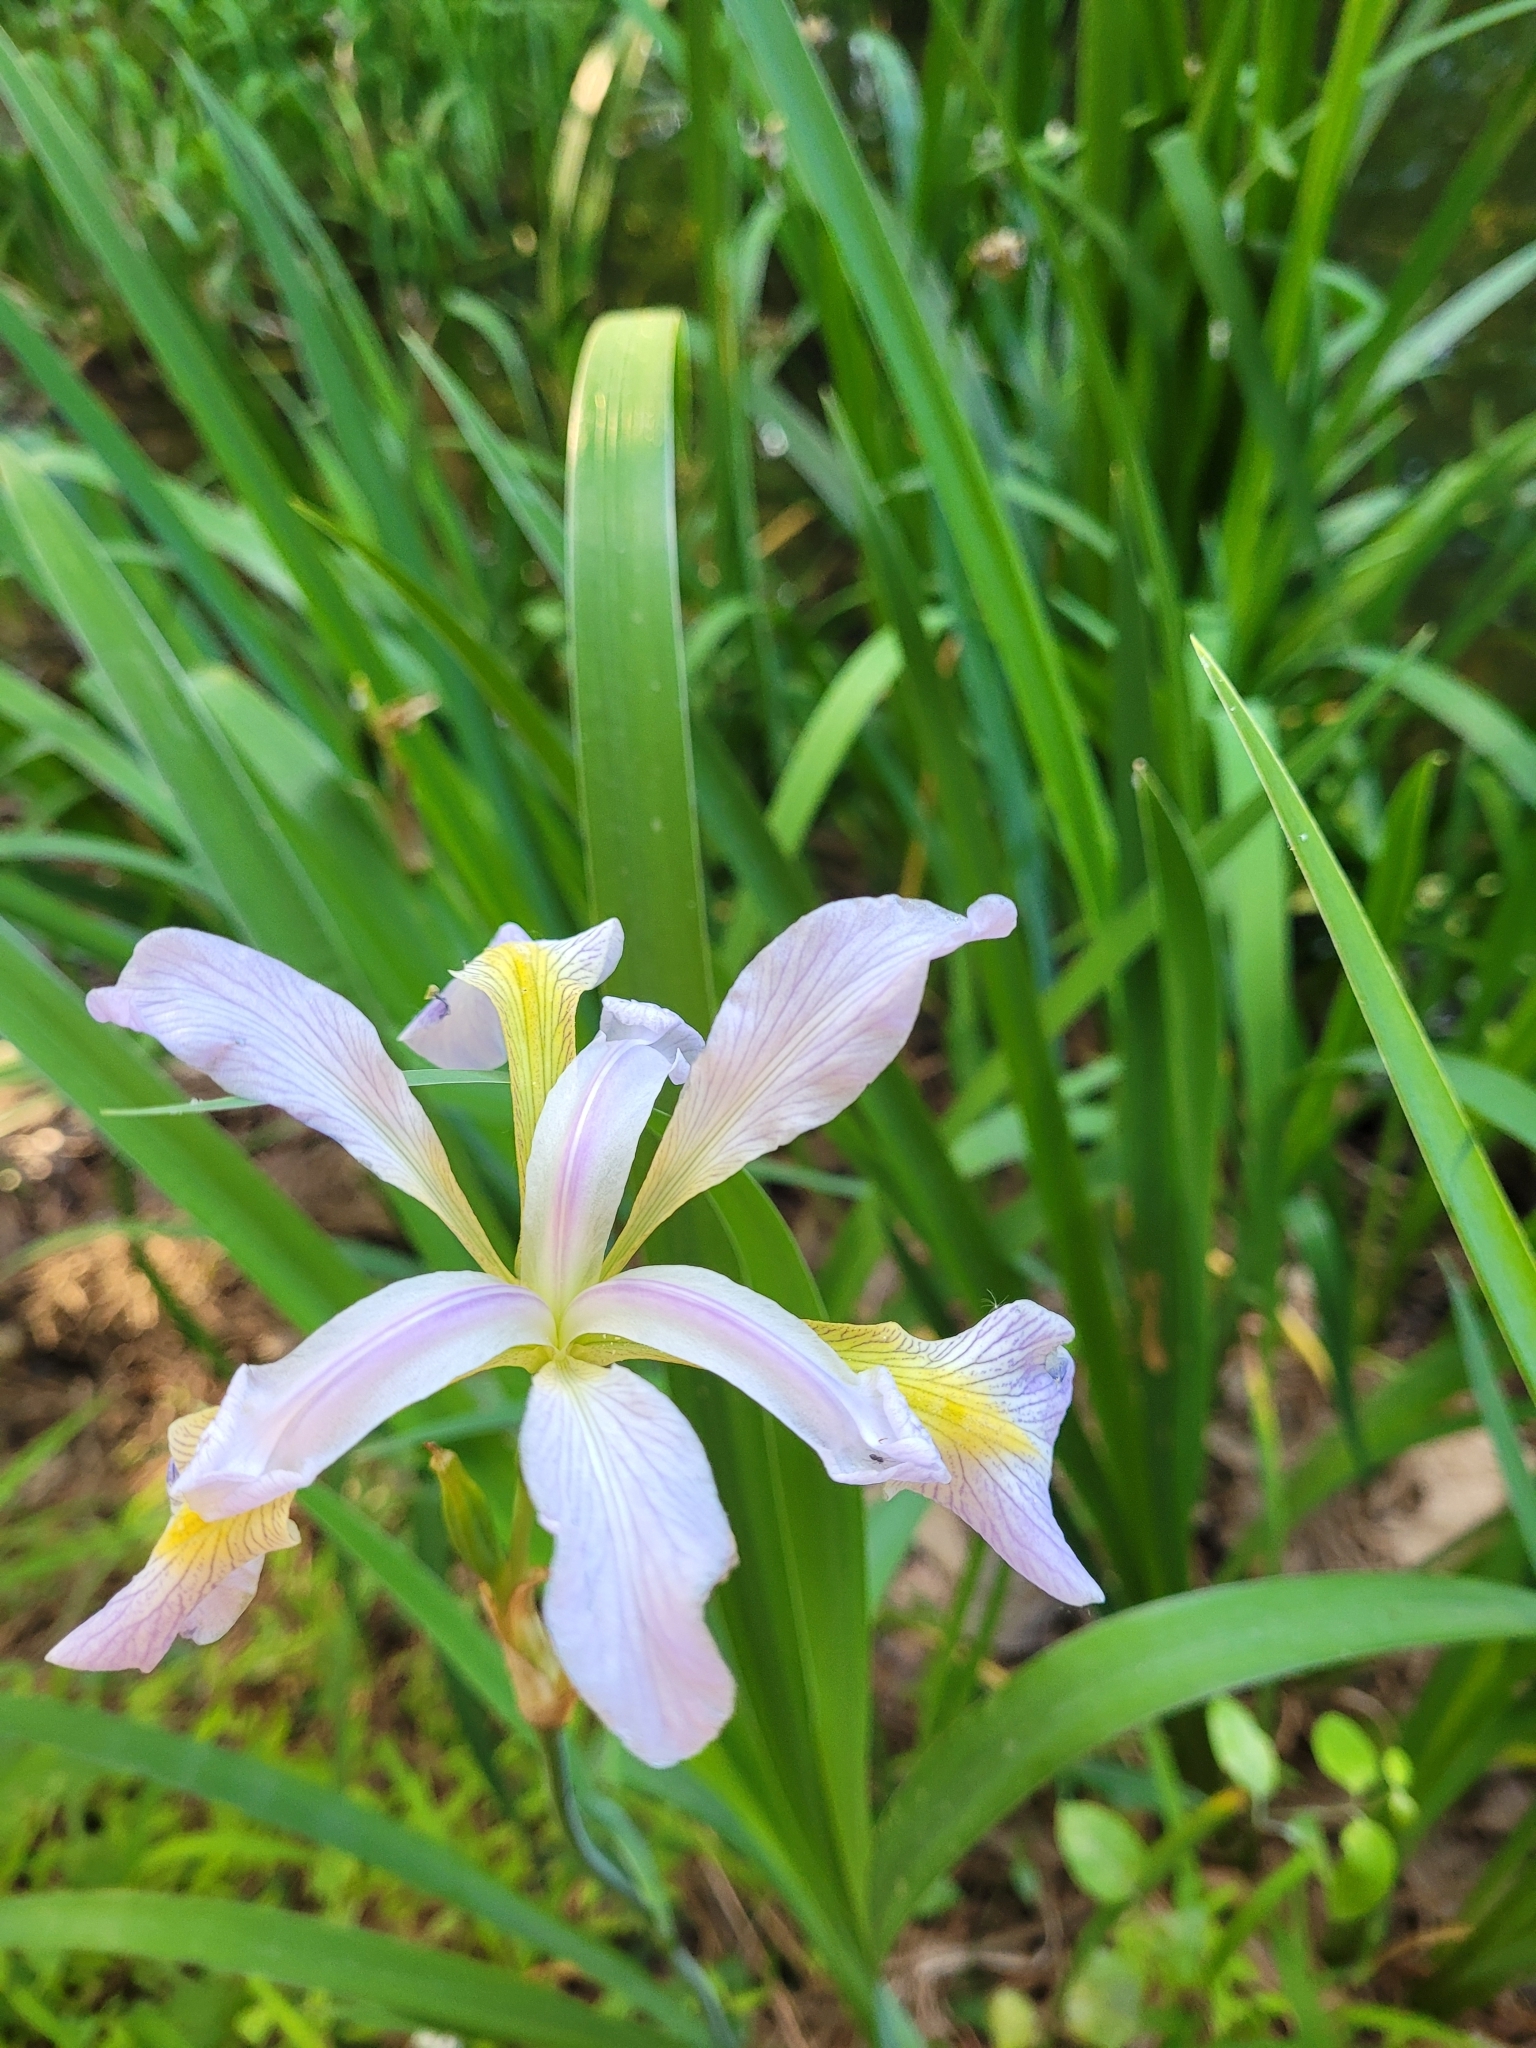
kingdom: Plantae
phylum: Tracheophyta
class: Liliopsida
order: Asparagales
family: Iridaceae
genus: Iris
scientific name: Iris virginica
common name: Southern blue flag
